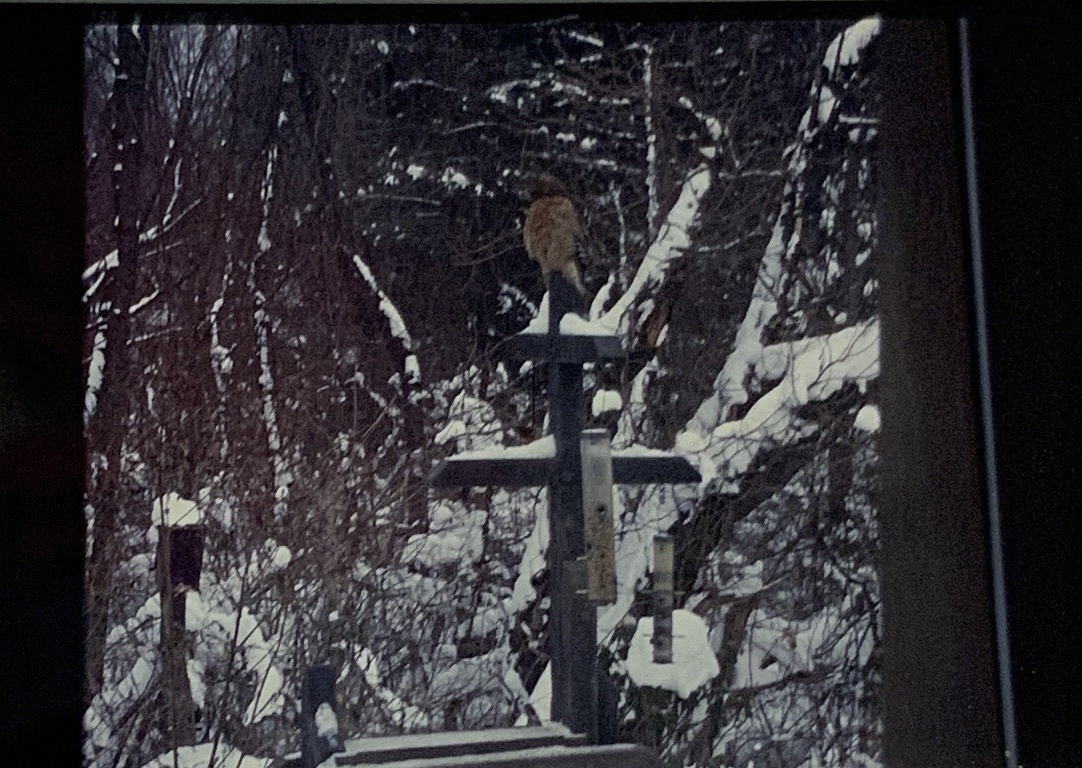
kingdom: Animalia
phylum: Chordata
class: Aves
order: Accipitriformes
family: Accipitridae
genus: Buteo
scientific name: Buteo lineatus
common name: Red-shouldered hawk
